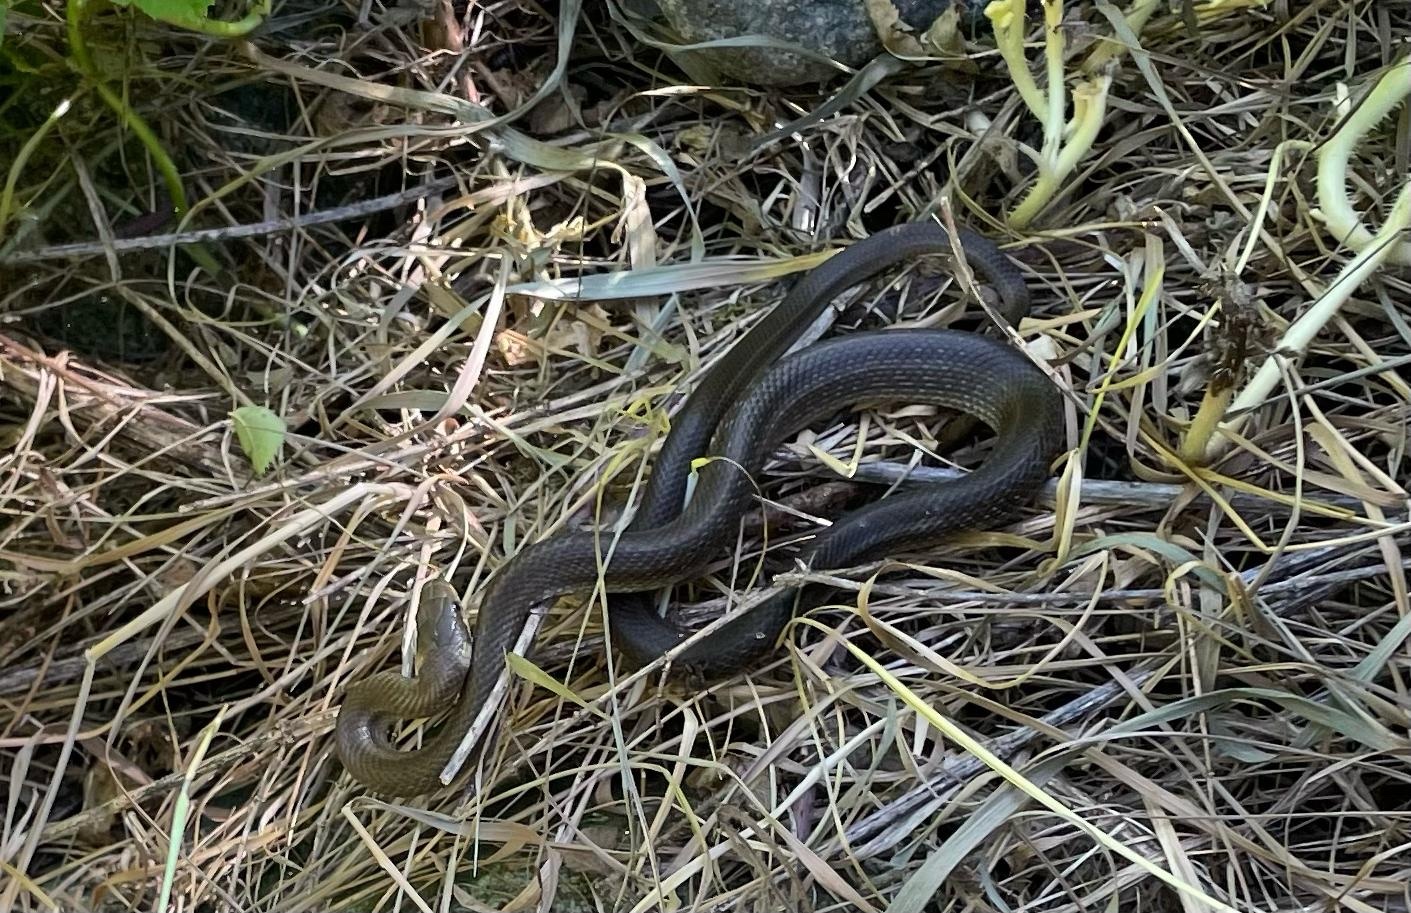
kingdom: Animalia
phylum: Chordata
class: Squamata
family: Colubridae
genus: Zamenis
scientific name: Zamenis longissimus
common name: Aesculapean snake
